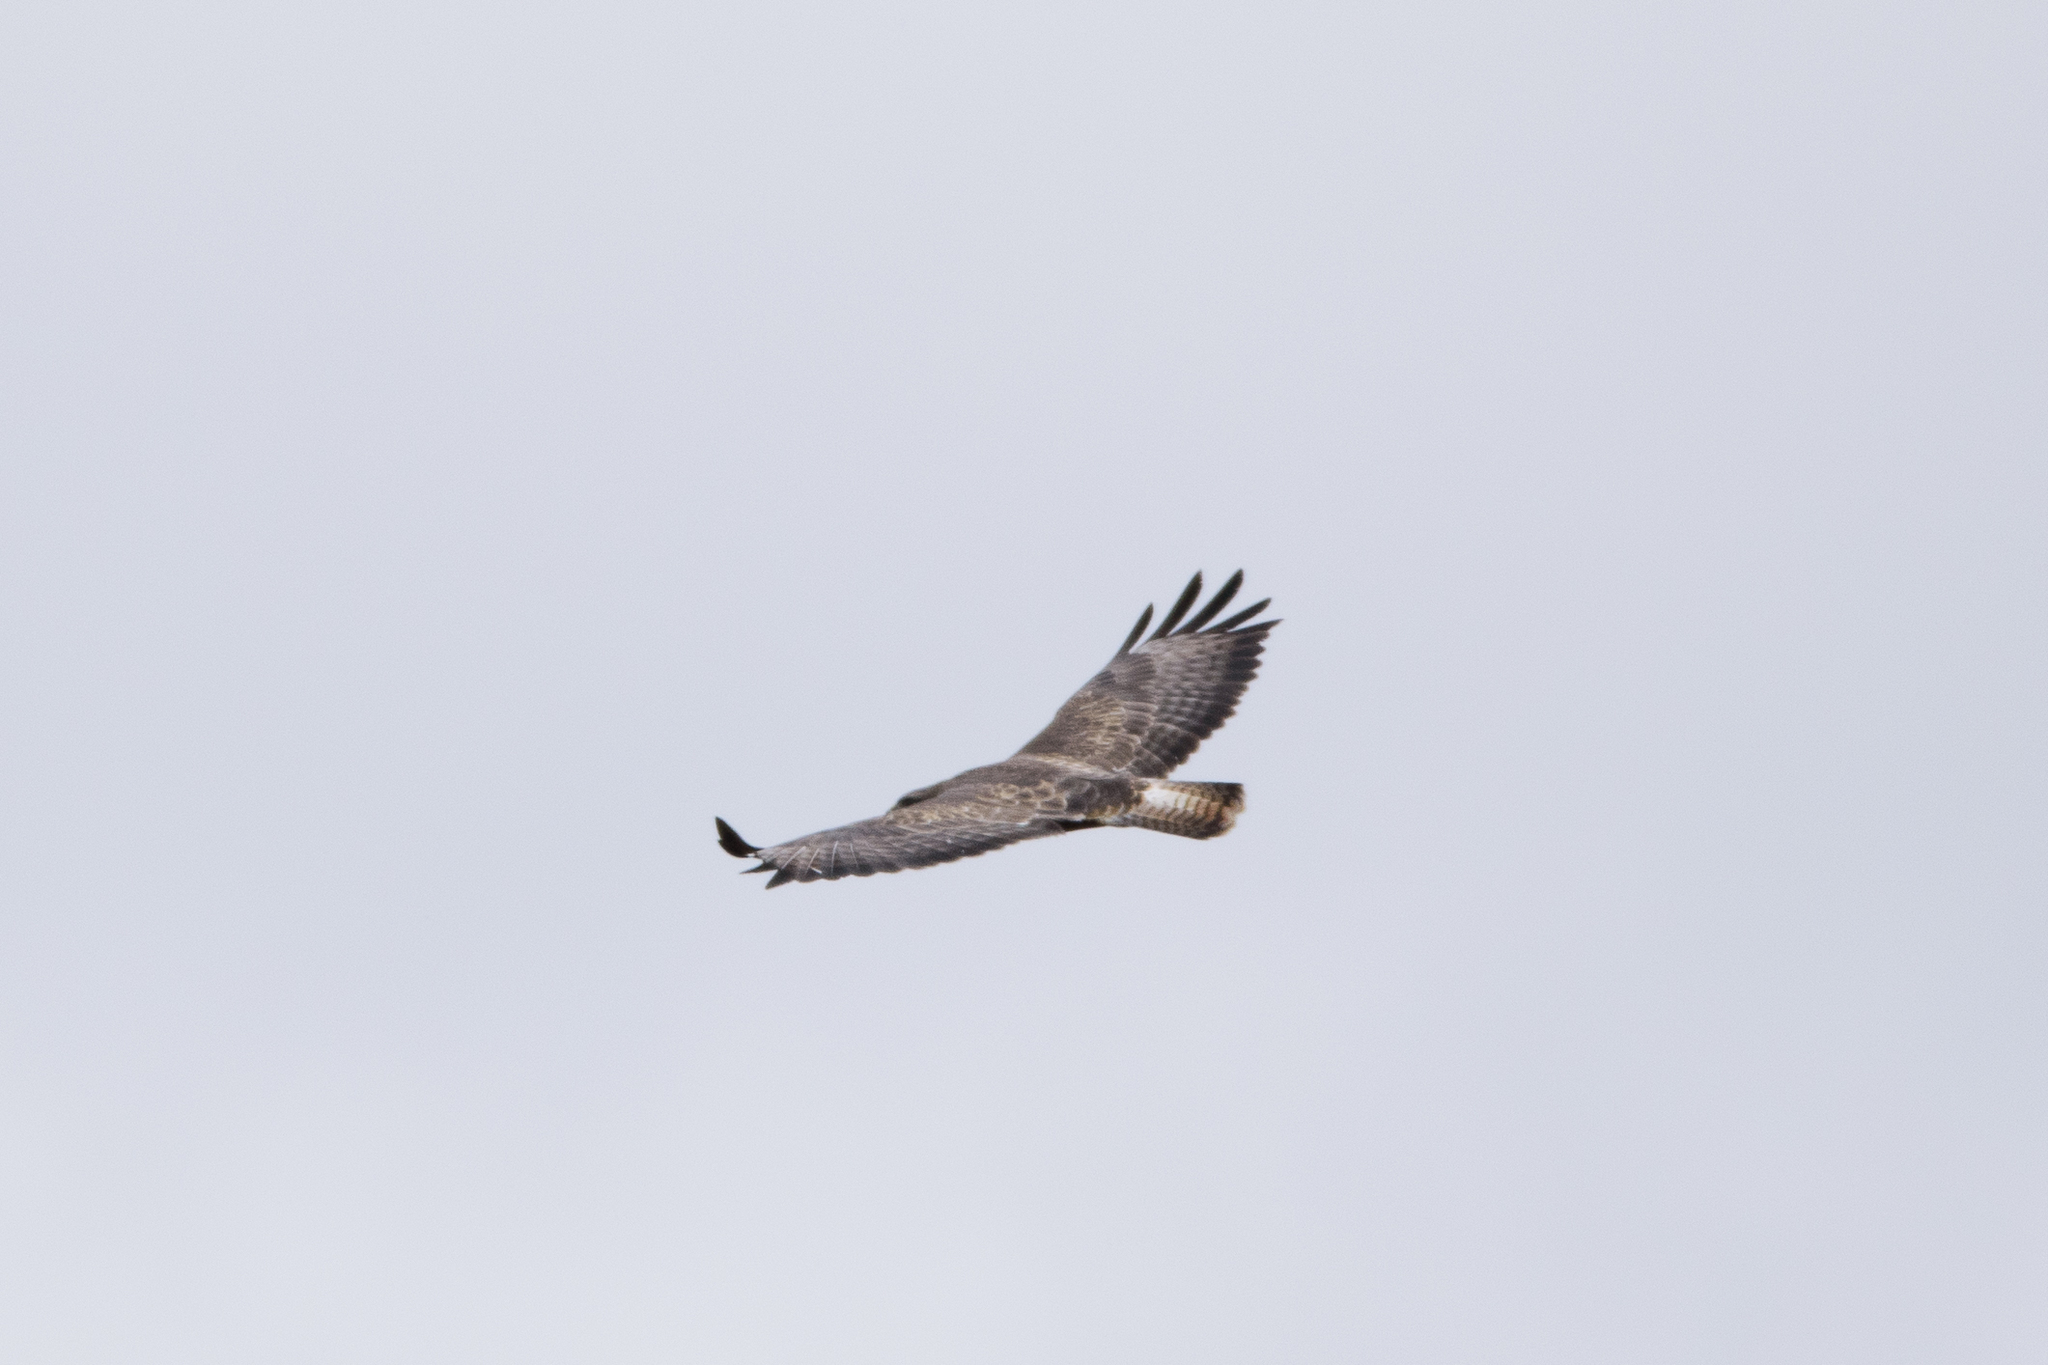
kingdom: Animalia
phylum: Chordata
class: Aves
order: Accipitriformes
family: Accipitridae
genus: Buteo
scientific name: Buteo buteo
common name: Common buzzard
